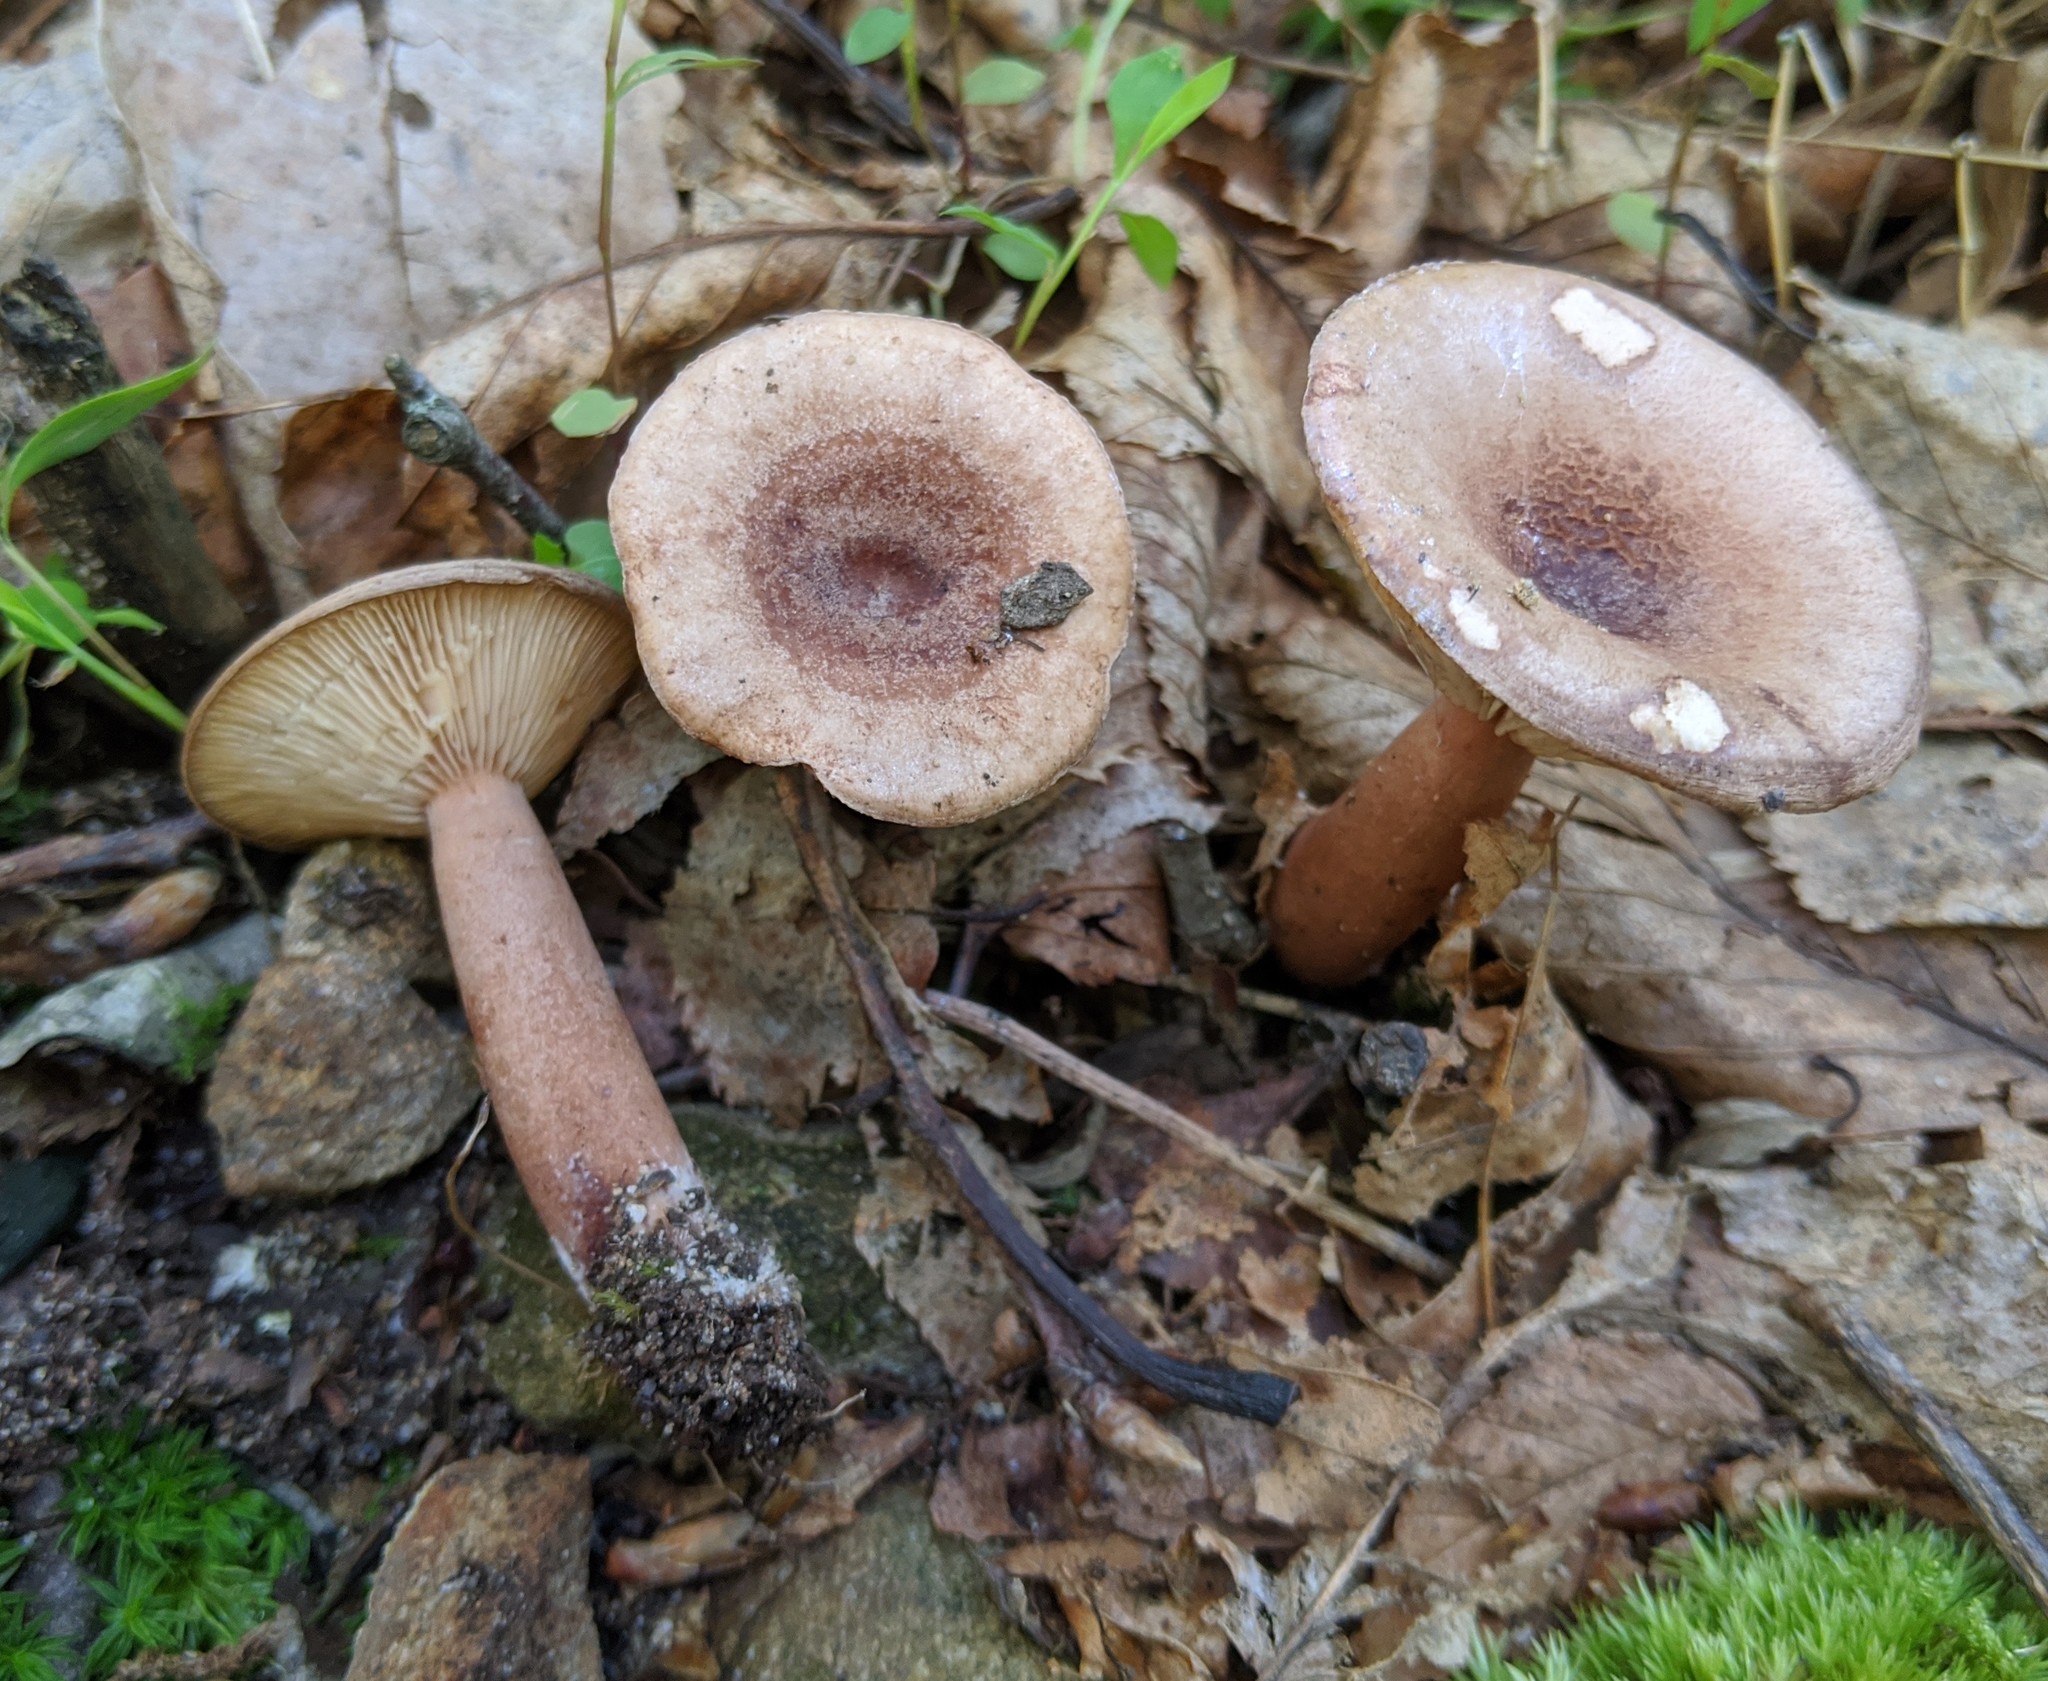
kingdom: Fungi
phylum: Basidiomycota
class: Agaricomycetes
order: Russulales
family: Russulaceae
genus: Lactarius
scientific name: Lactarius camphoratus
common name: Curry milkcap
